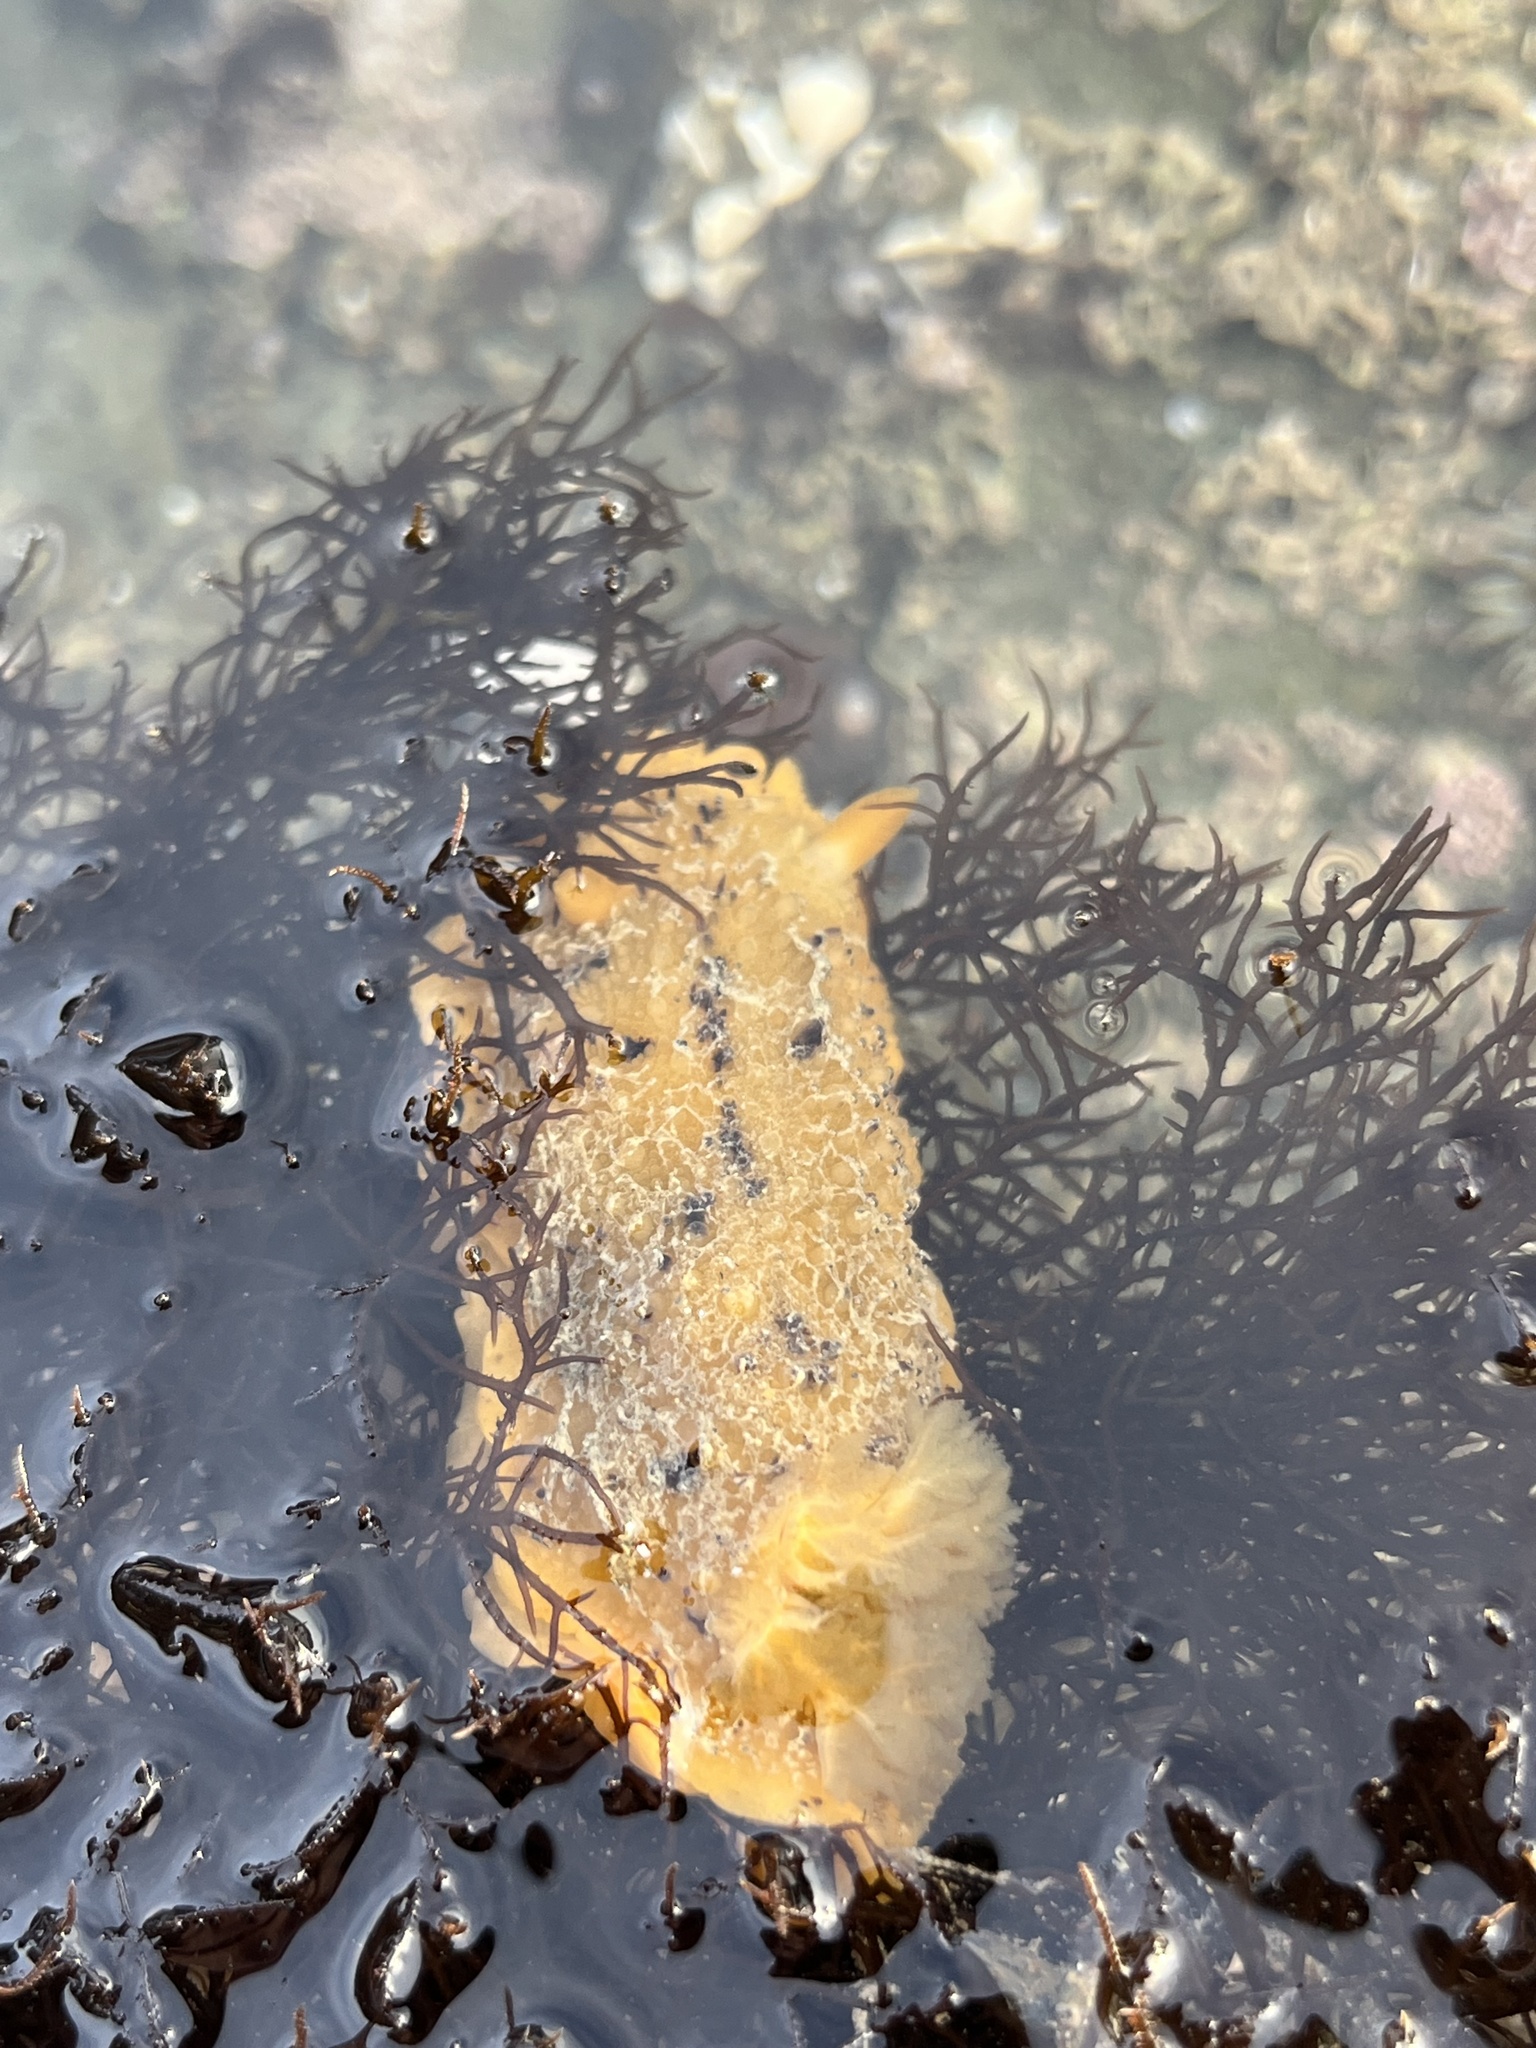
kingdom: Animalia
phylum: Mollusca
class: Gastropoda
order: Nudibranchia
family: Dorididae
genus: Doris
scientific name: Doris montereyensis
